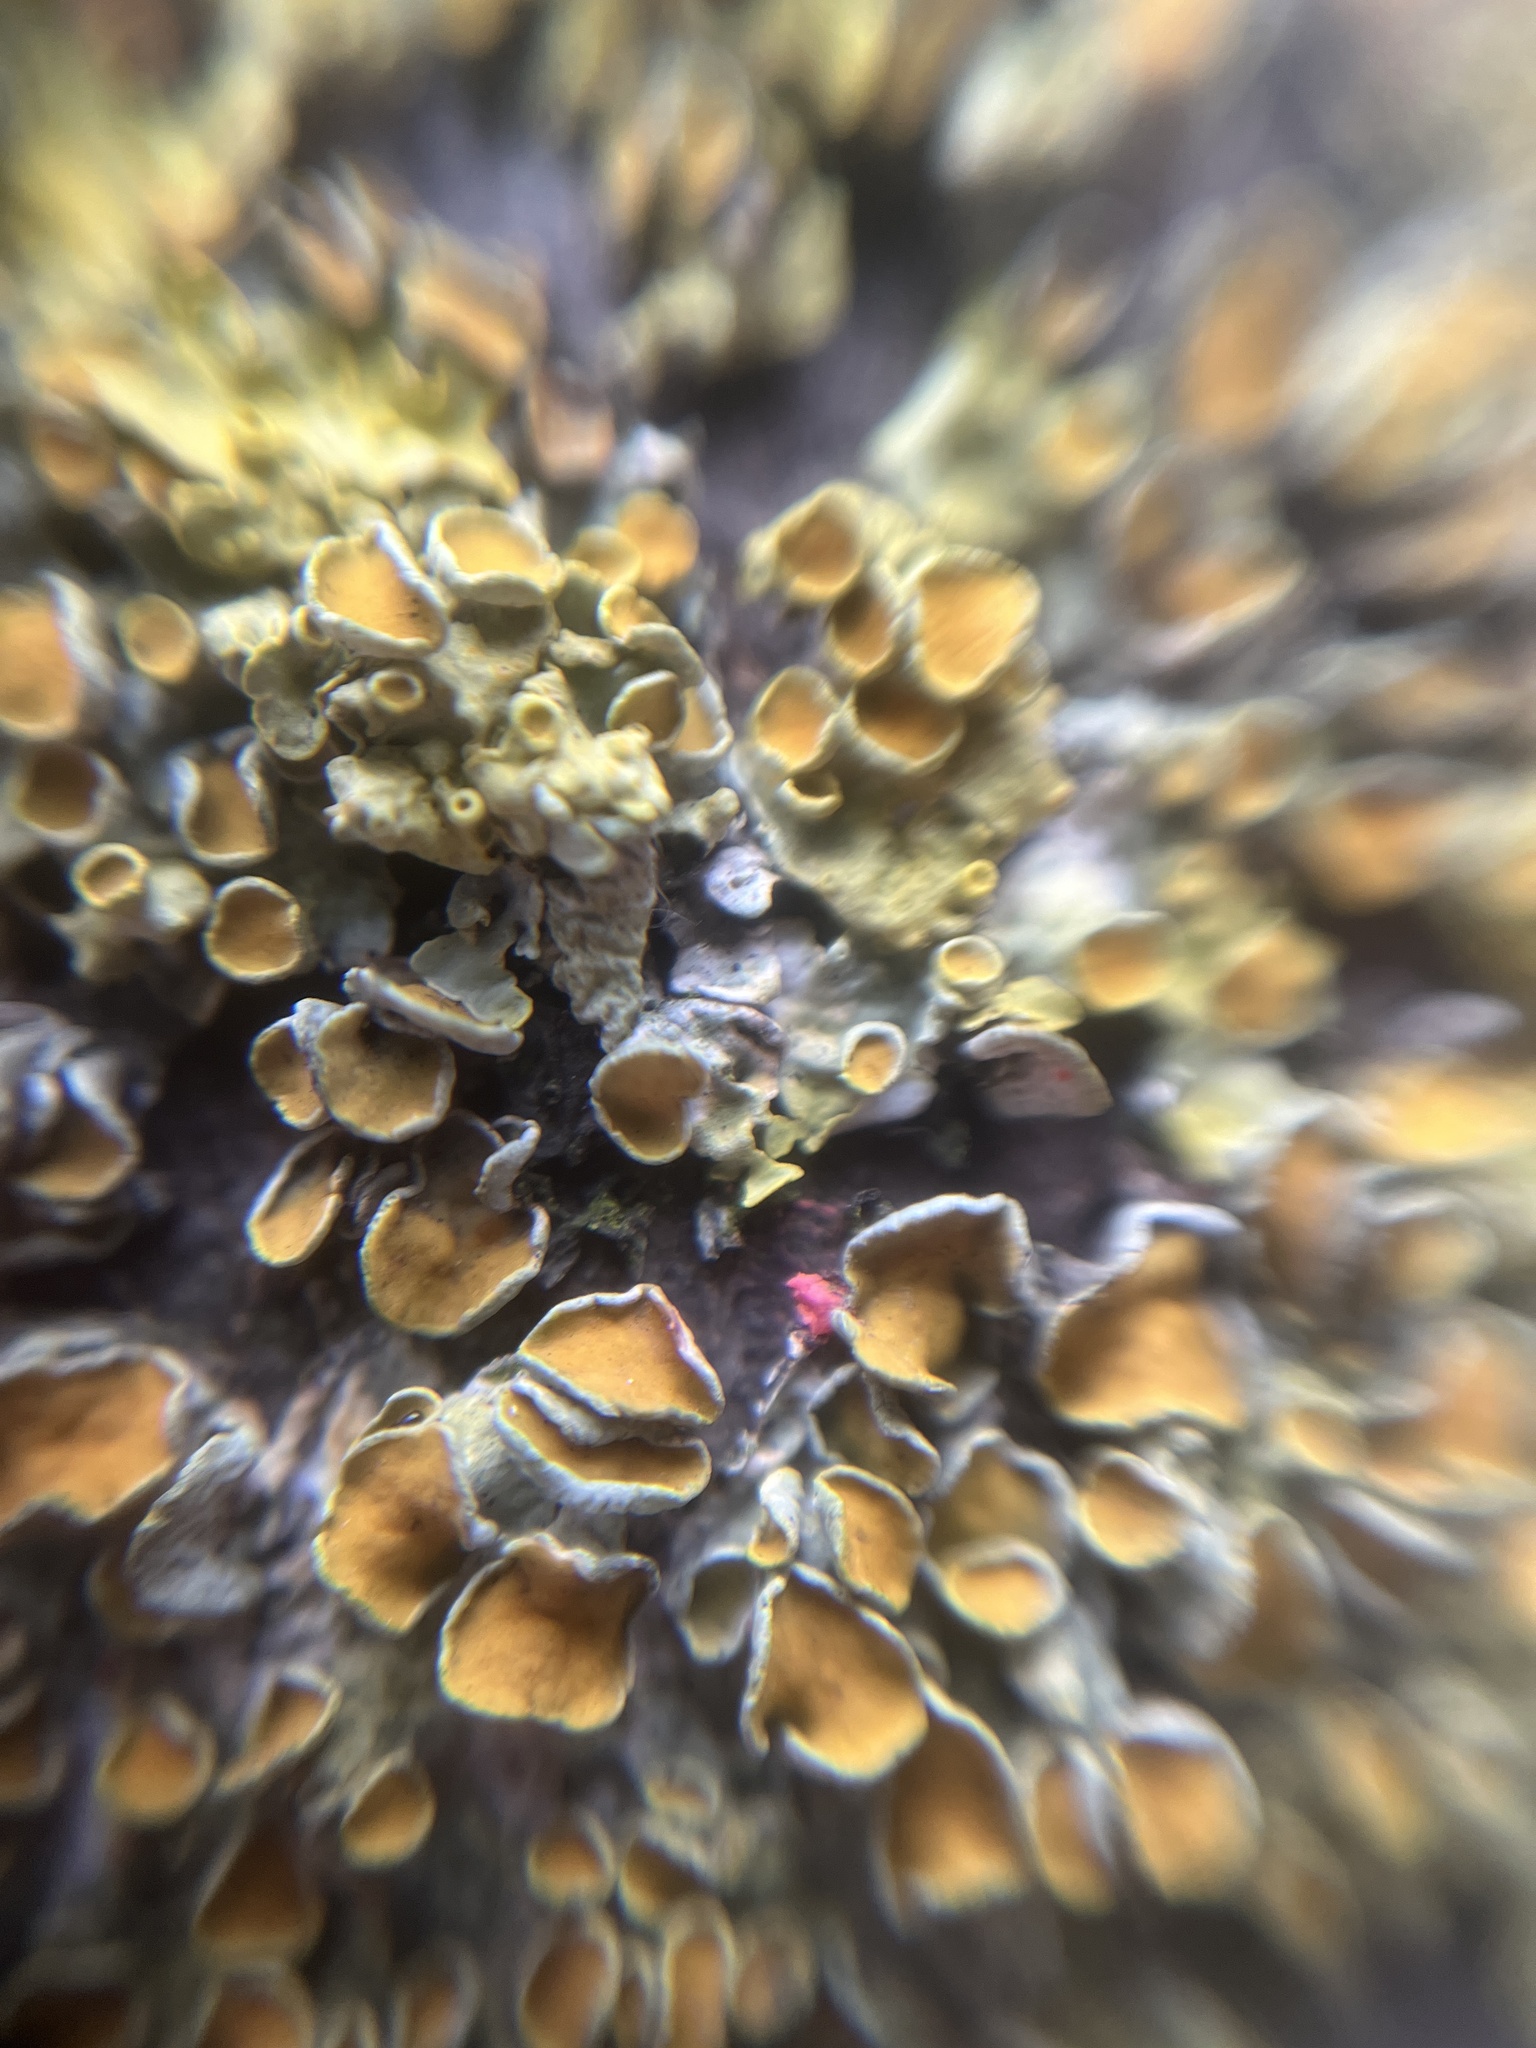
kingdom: Fungi
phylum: Ascomycota
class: Sordariomycetes
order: Hypocreales
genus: Illosporiopsis
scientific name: Illosporiopsis christiansenii
